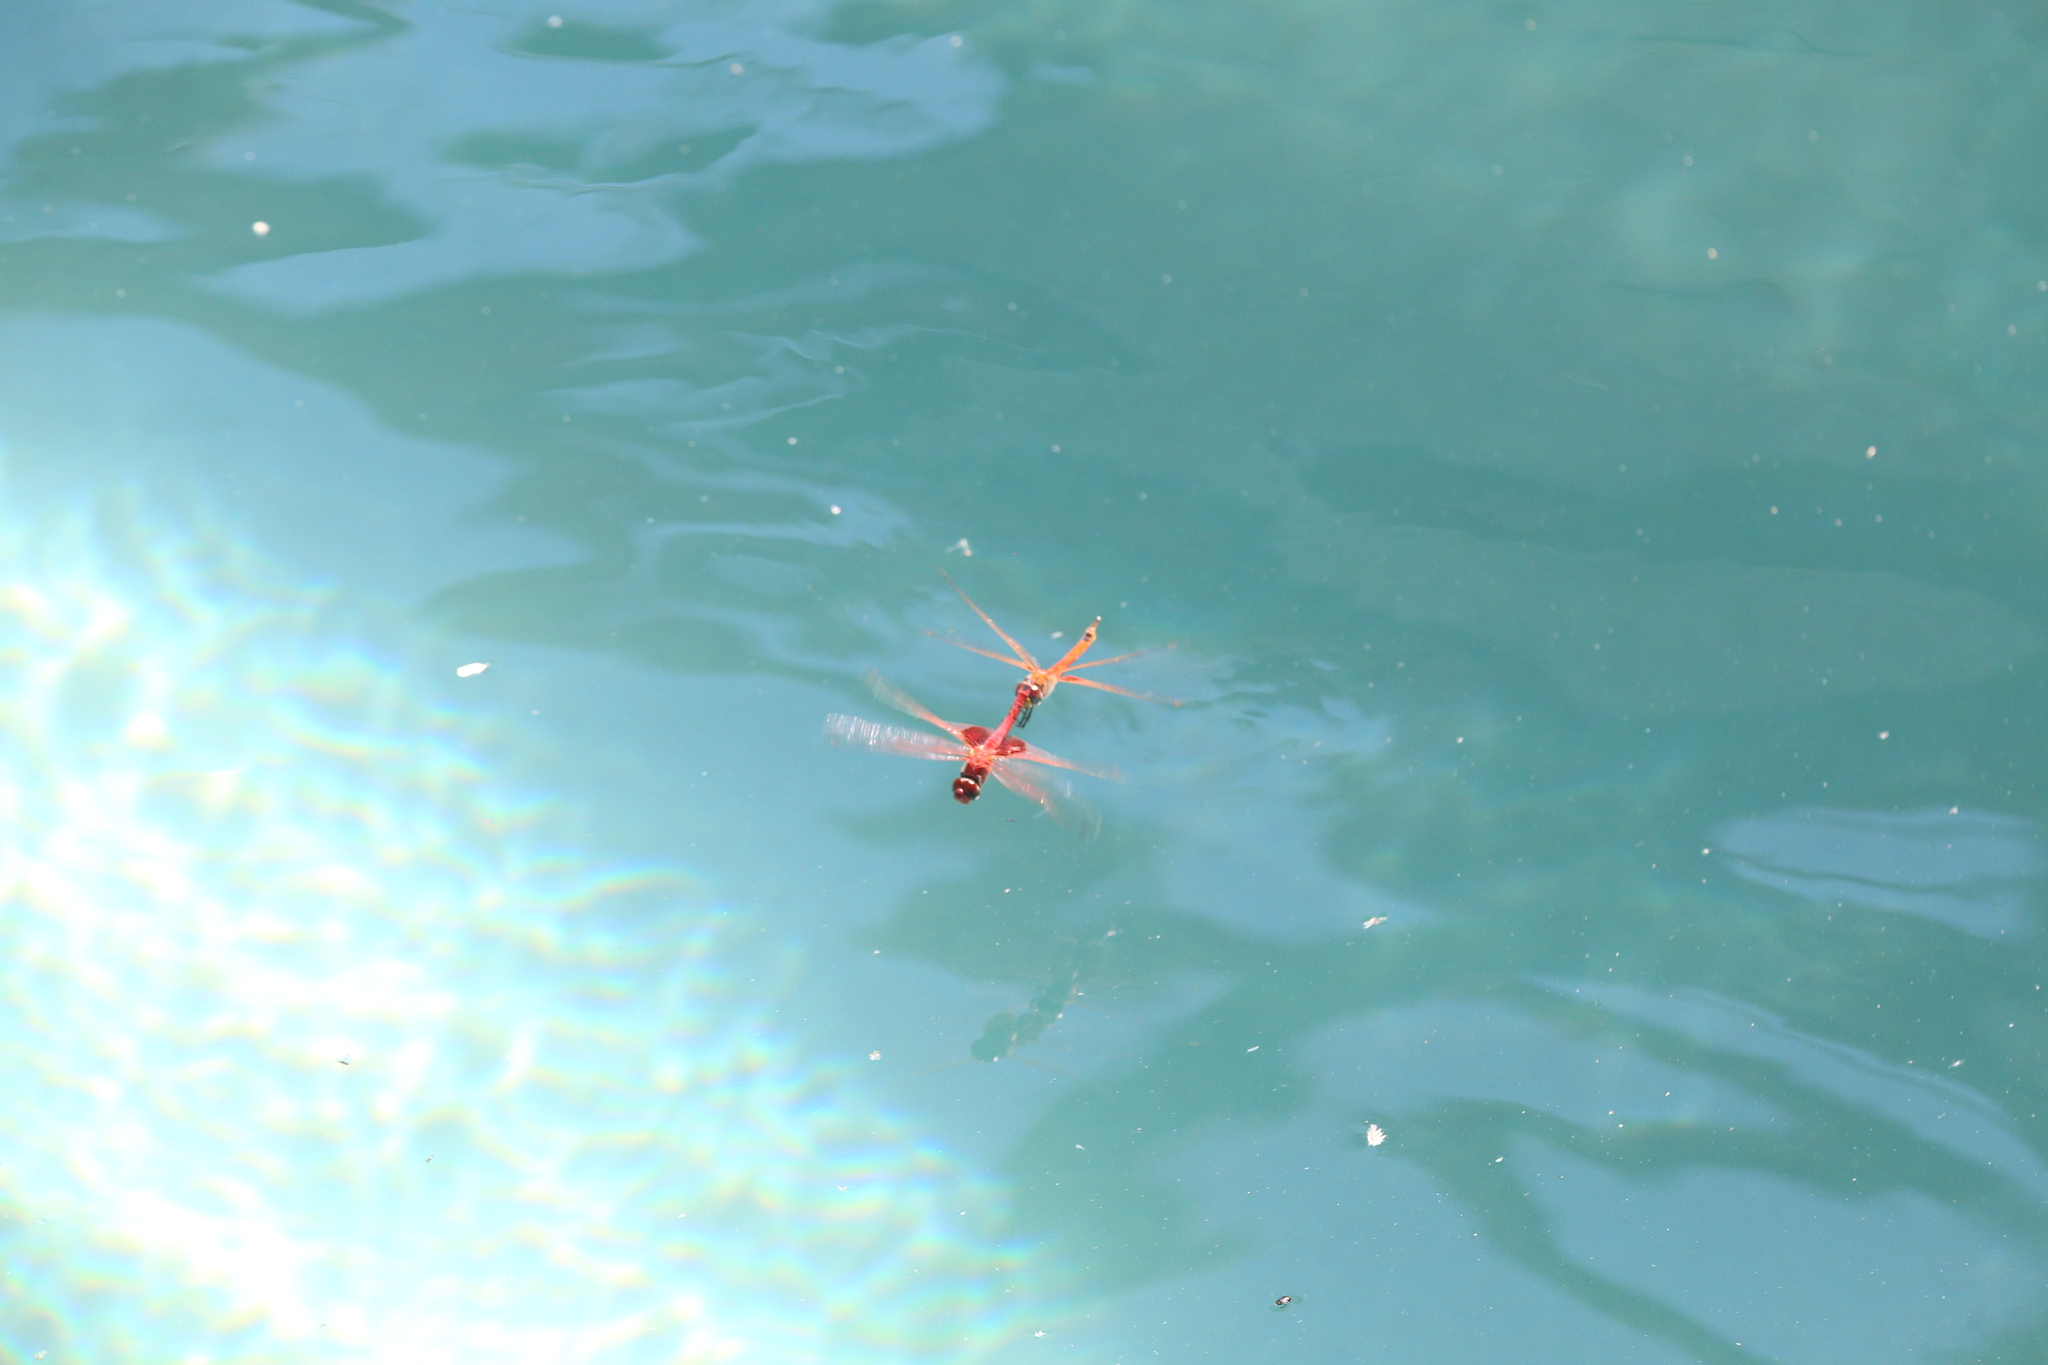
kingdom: Animalia
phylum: Arthropoda
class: Insecta
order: Odonata
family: Libellulidae
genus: Tramea
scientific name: Tramea stenoloba
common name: Narrow-lobed glider
